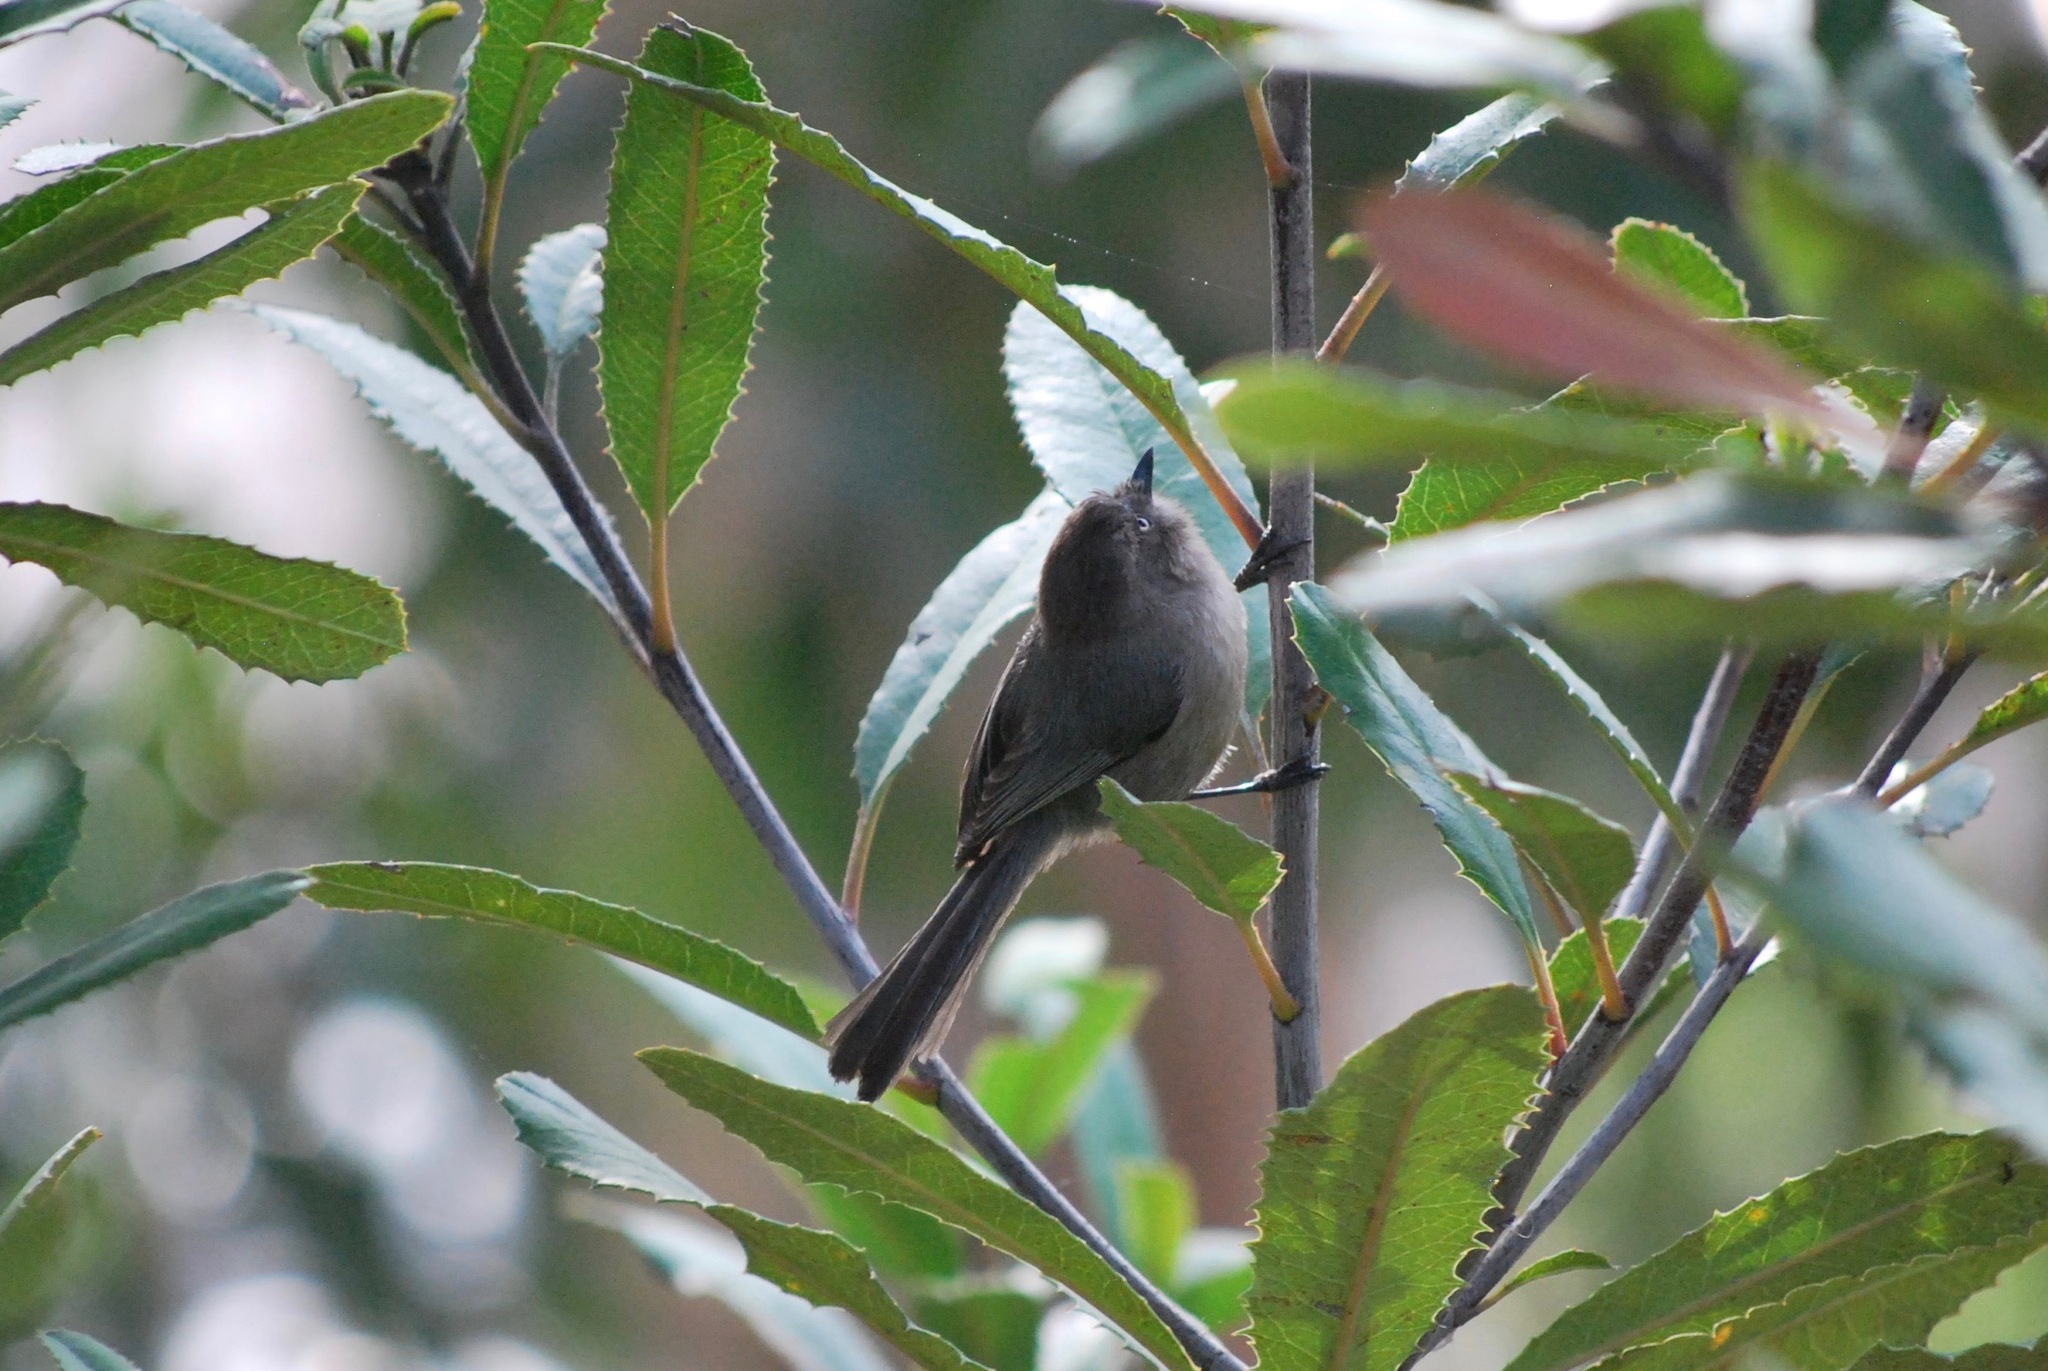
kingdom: Animalia
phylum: Chordata
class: Aves
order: Passeriformes
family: Aegithalidae
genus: Psaltriparus
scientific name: Psaltriparus minimus
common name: American bushtit
